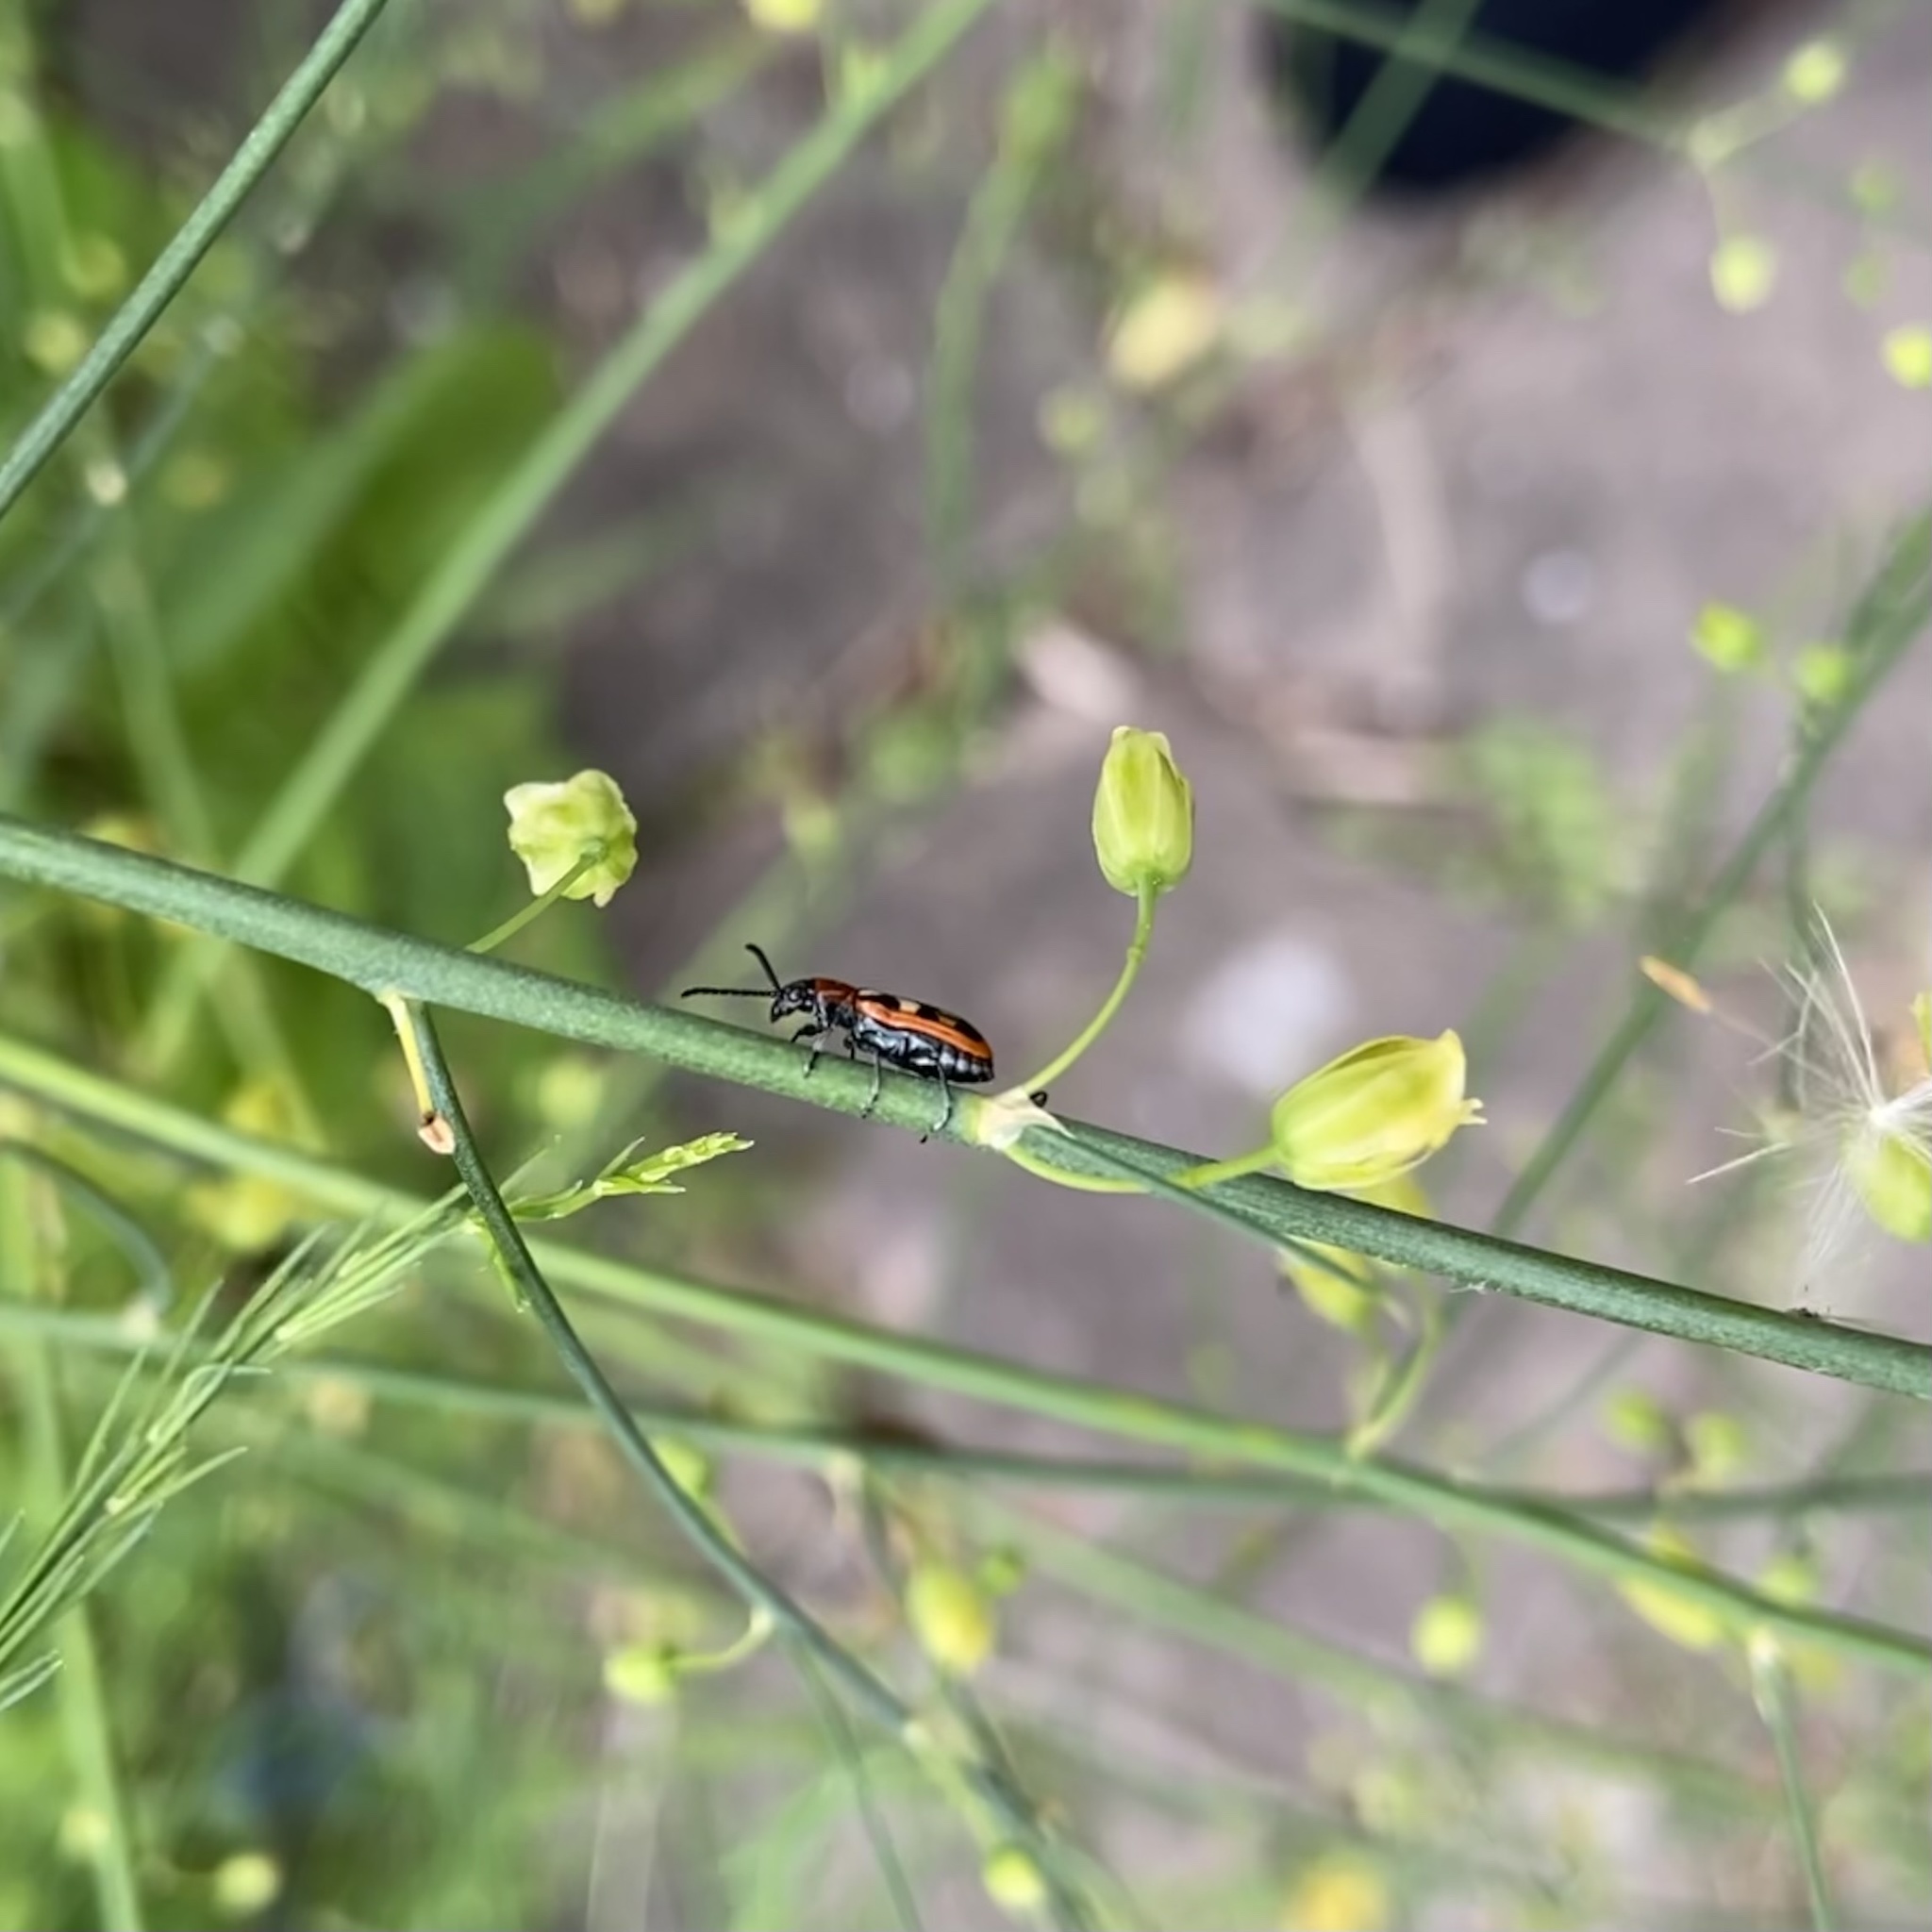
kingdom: Animalia
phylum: Arthropoda
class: Insecta
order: Coleoptera
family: Chrysomelidae
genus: Crioceris
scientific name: Crioceris asparagi
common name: Asparagus beetle
